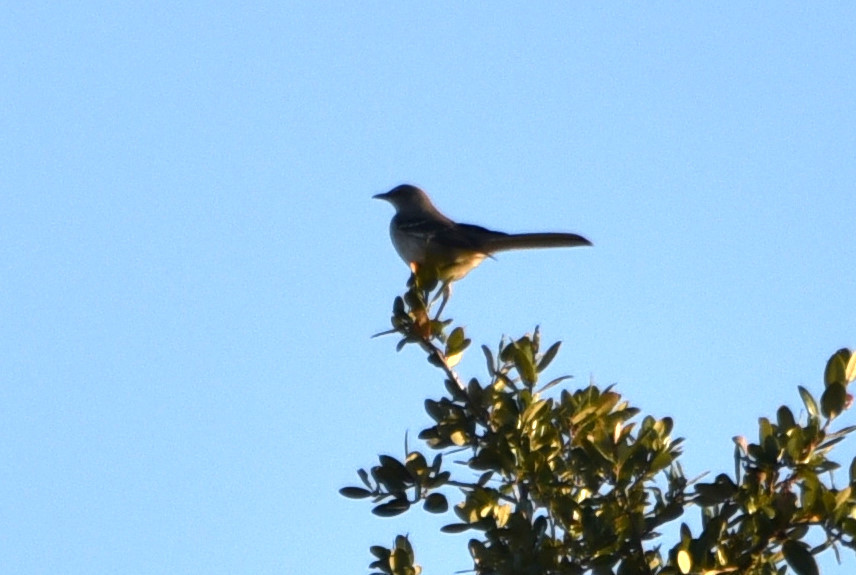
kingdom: Animalia
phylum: Chordata
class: Aves
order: Passeriformes
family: Mimidae
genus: Mimus
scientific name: Mimus polyglottos
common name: Northern mockingbird
